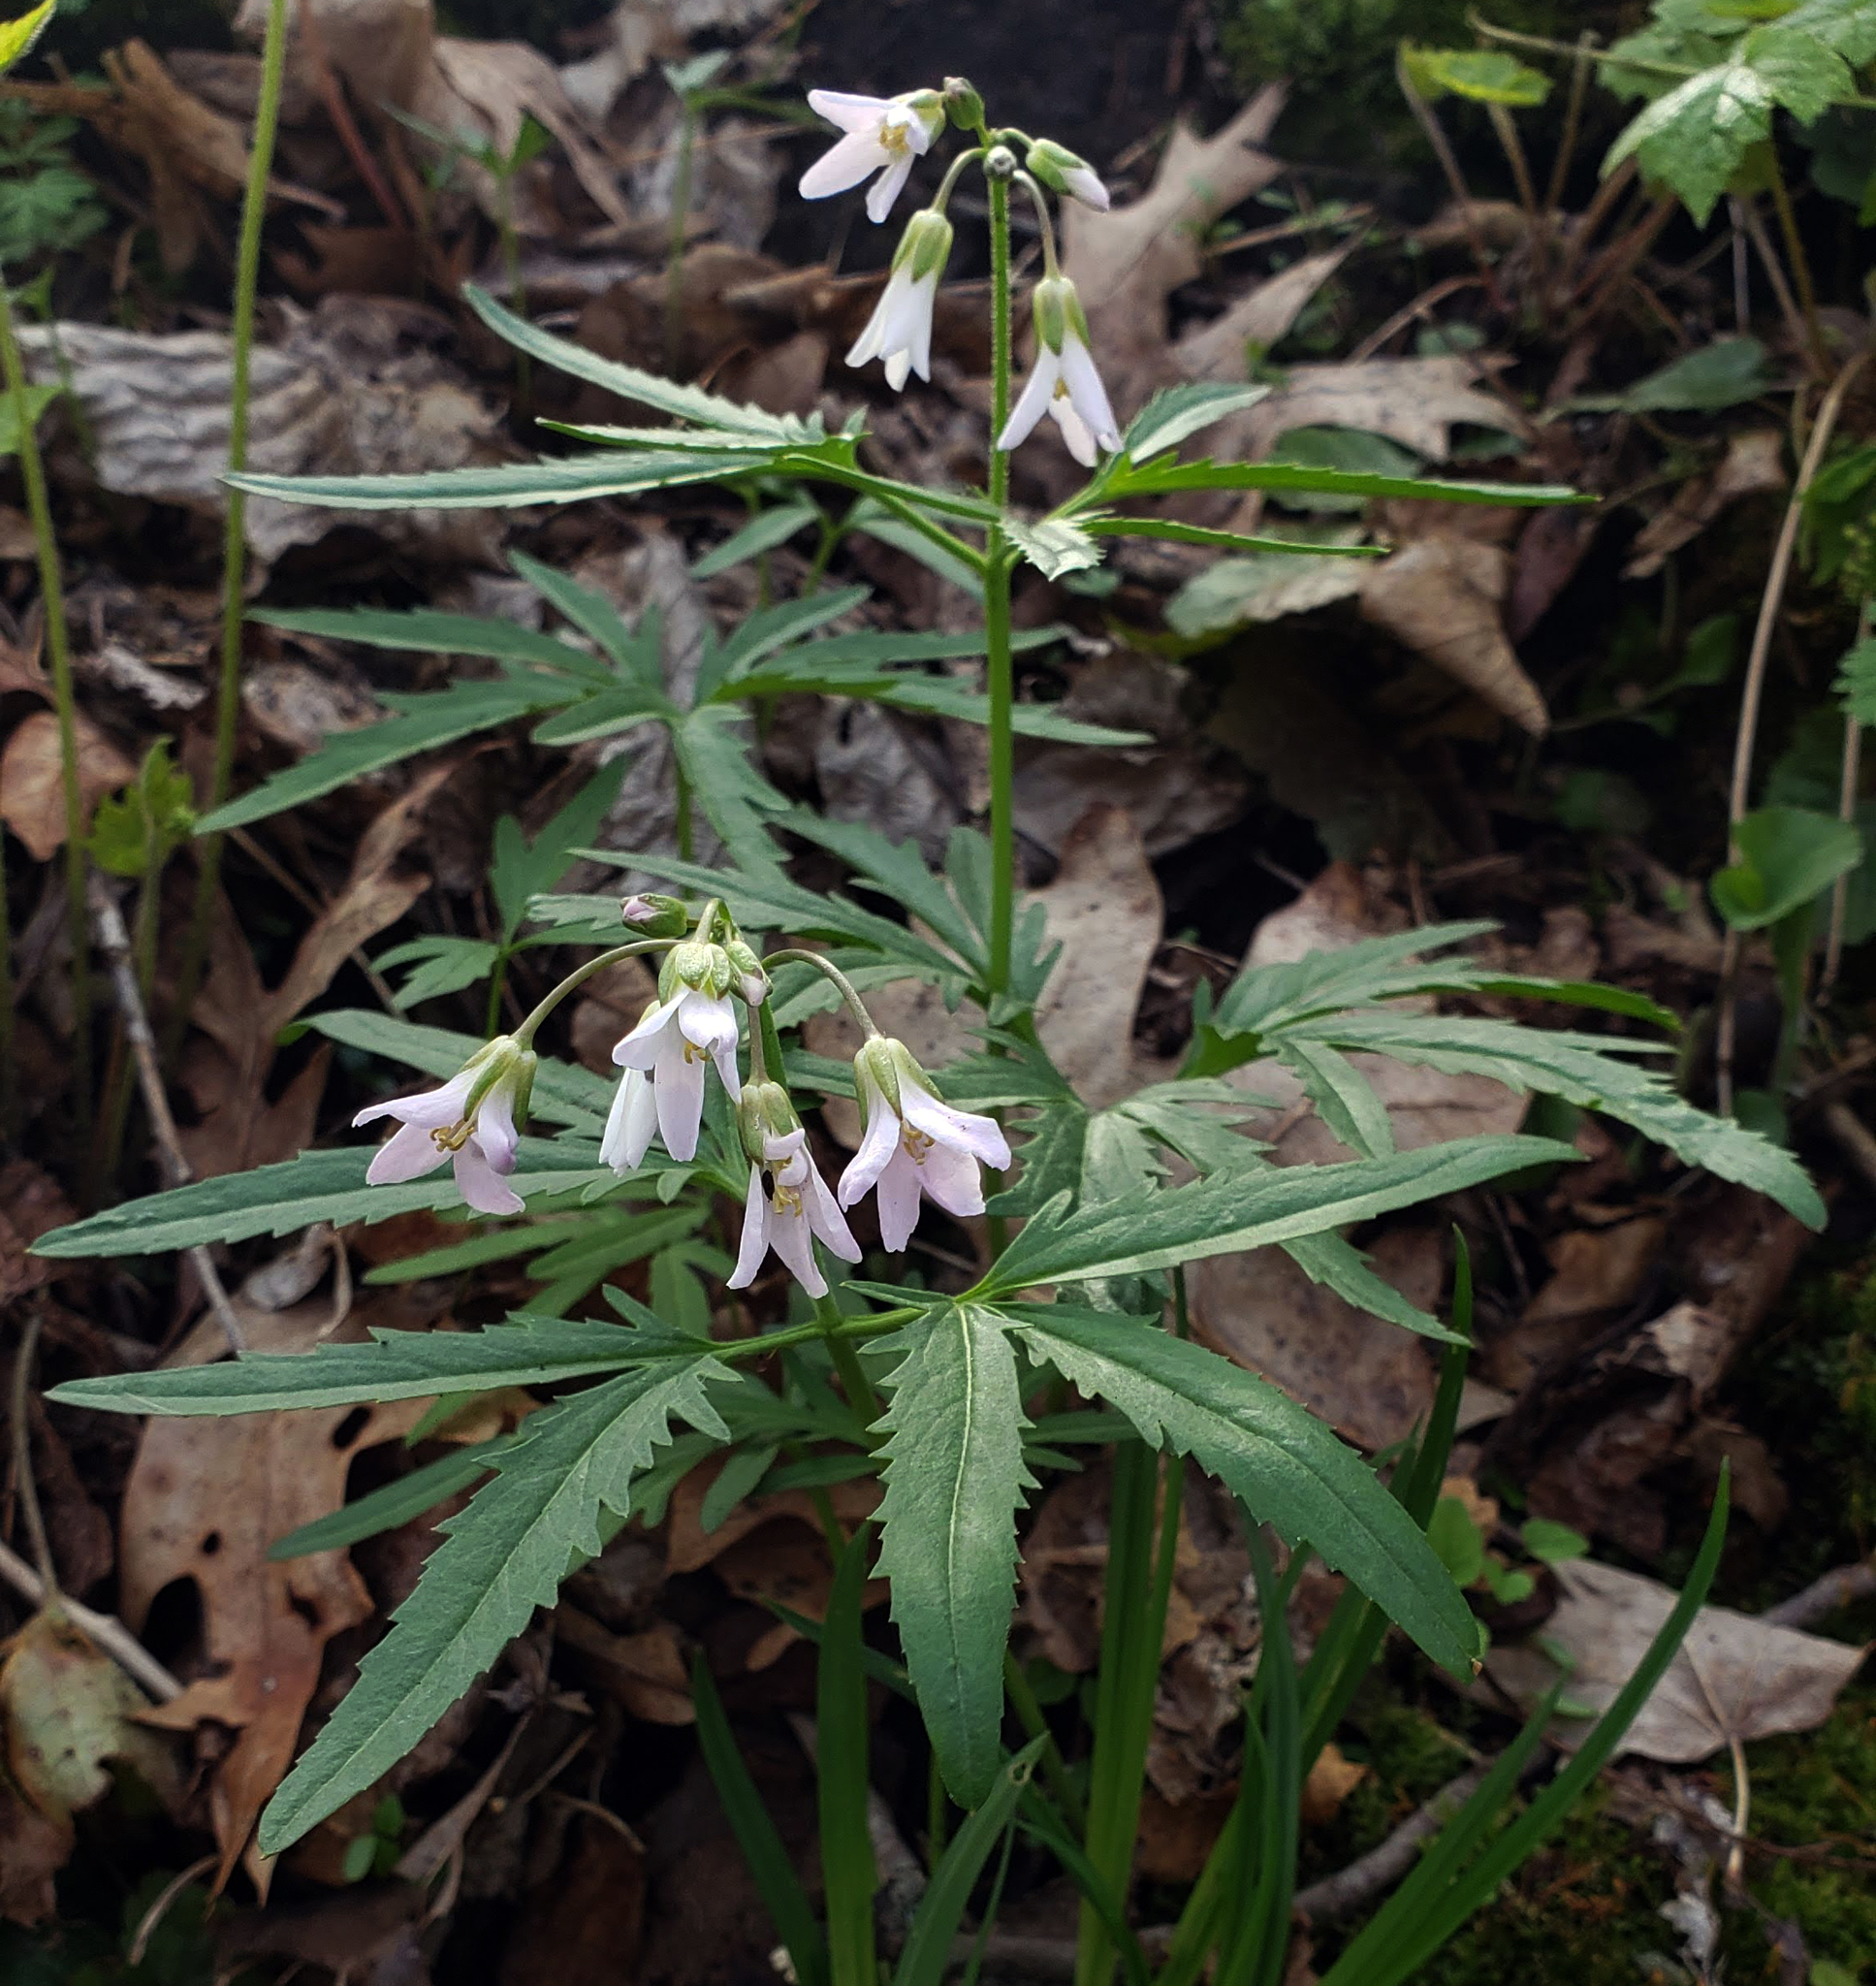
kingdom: Plantae
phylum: Tracheophyta
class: Magnoliopsida
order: Brassicales
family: Brassicaceae
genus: Cardamine
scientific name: Cardamine concatenata
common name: Cut-leaf toothcup
